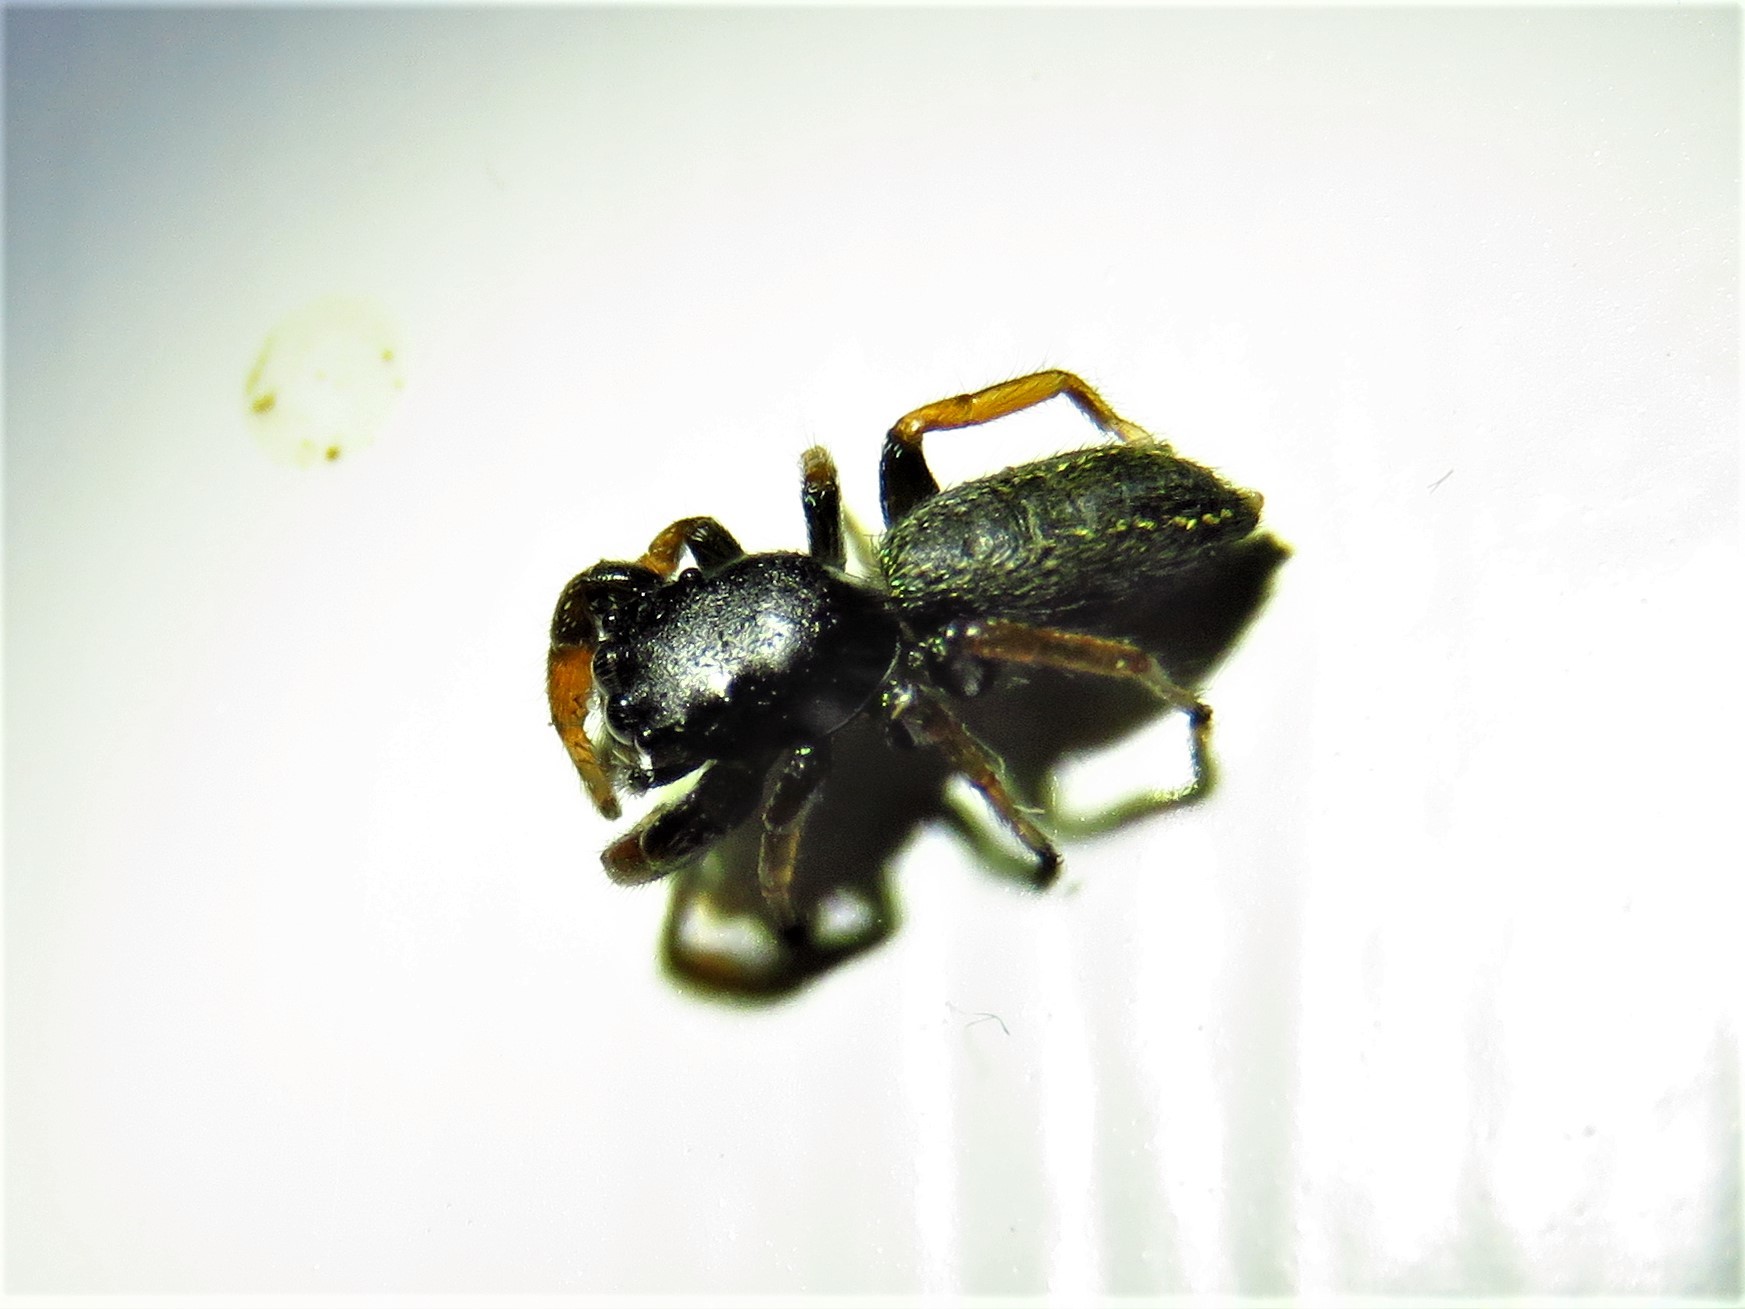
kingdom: Animalia
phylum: Arthropoda
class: Arachnida
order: Araneae
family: Salticidae
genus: Metacyrba
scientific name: Metacyrba taeniola
